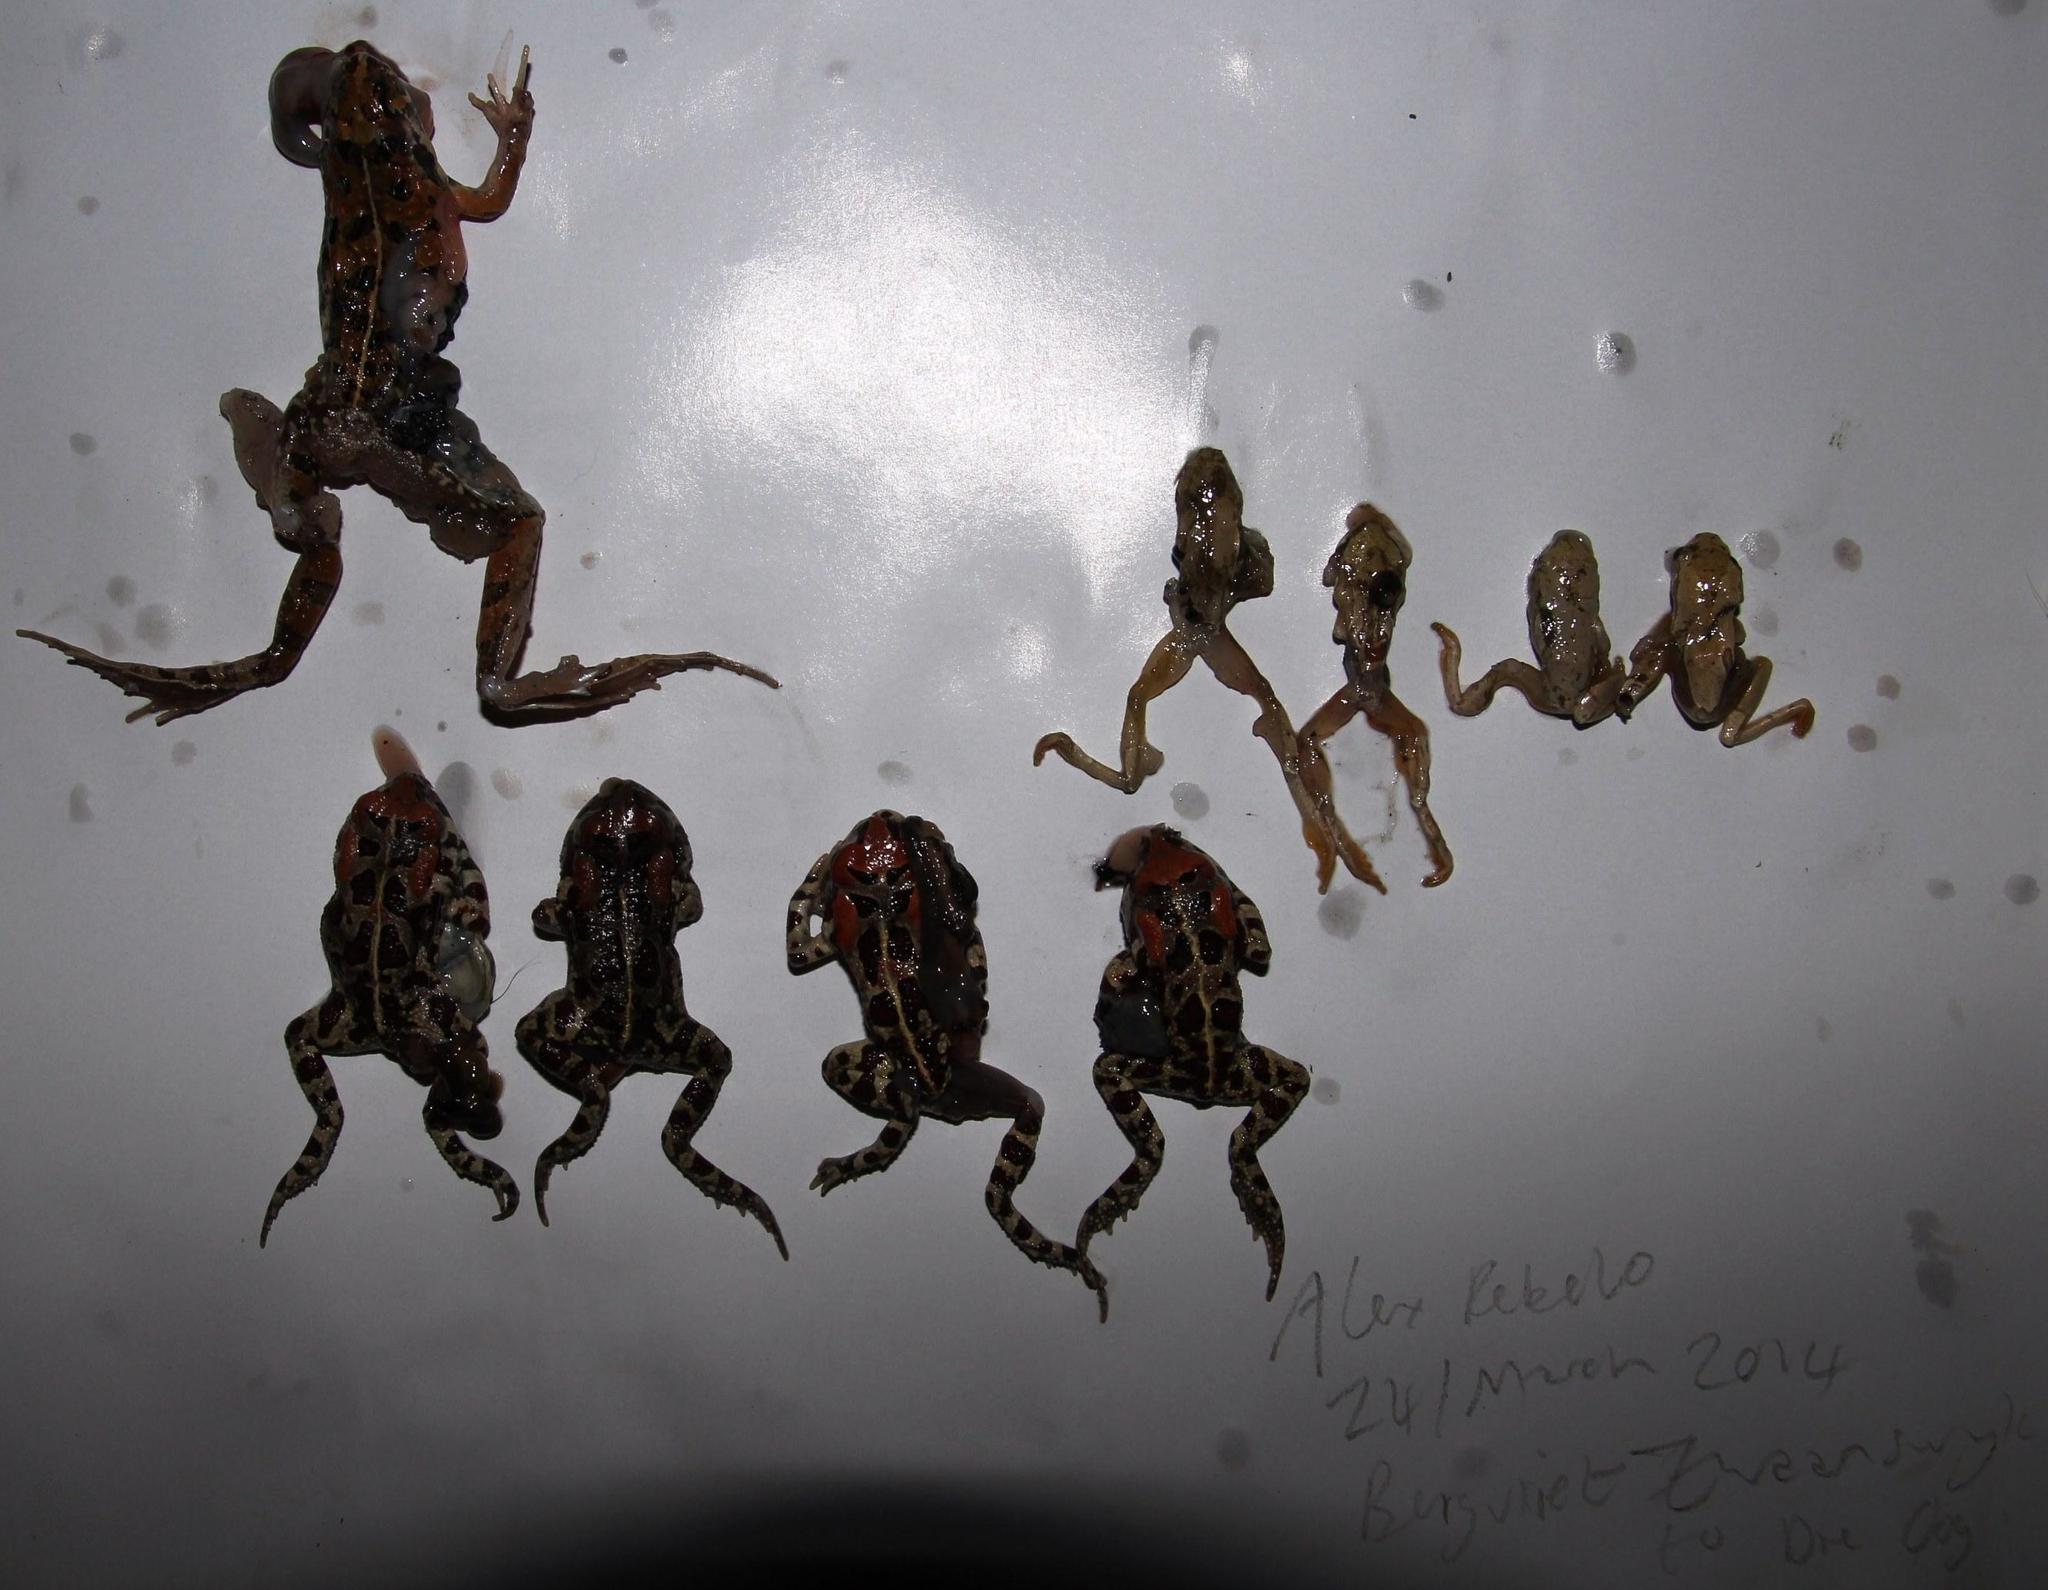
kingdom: Animalia
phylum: Chordata
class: Amphibia
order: Anura
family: Bufonidae
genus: Sclerophrys
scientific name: Sclerophrys pantherina
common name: Panther toad
